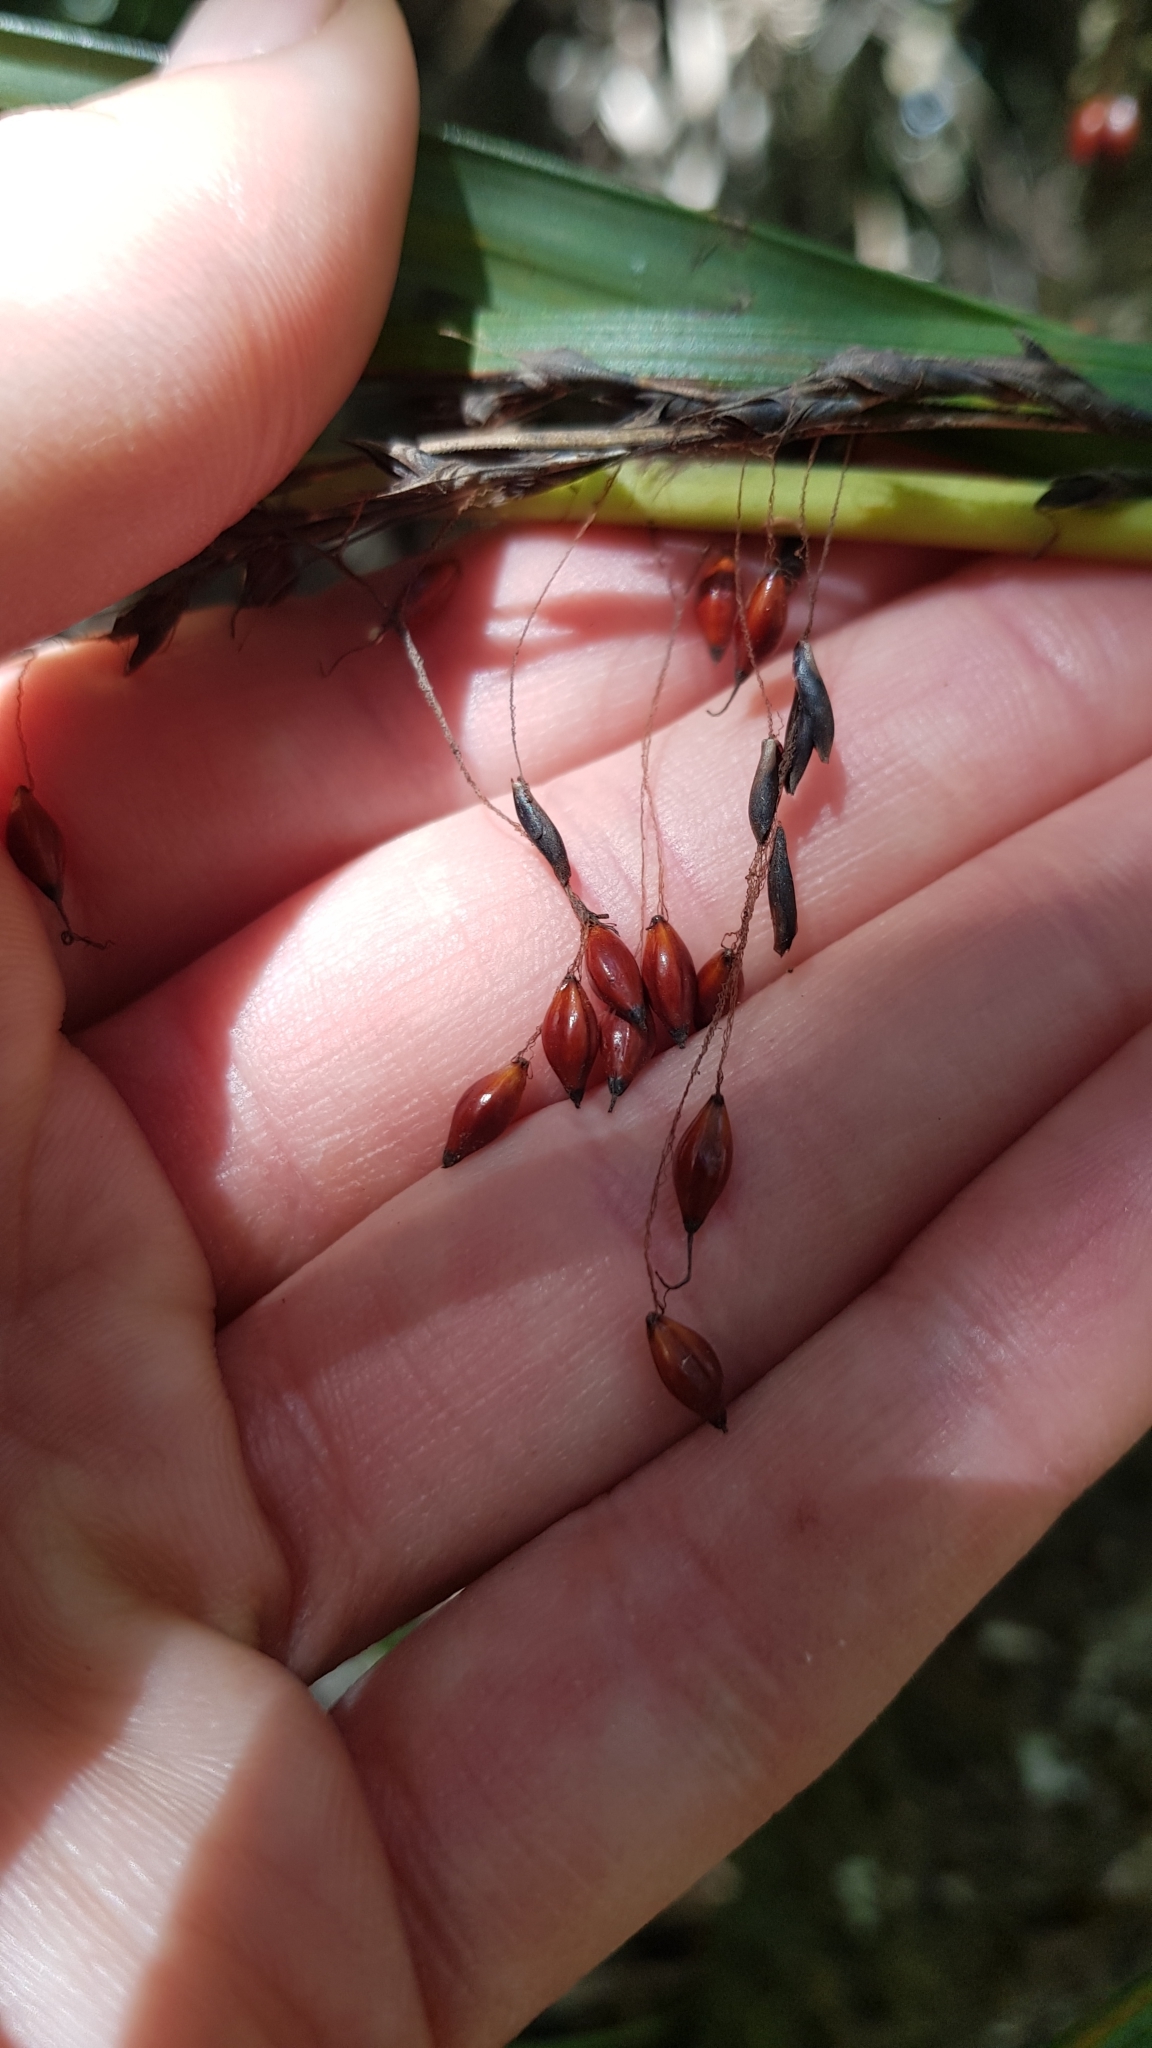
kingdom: Plantae
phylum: Tracheophyta
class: Liliopsida
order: Poales
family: Cyperaceae
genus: Gahnia
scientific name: Gahnia pauciflora
